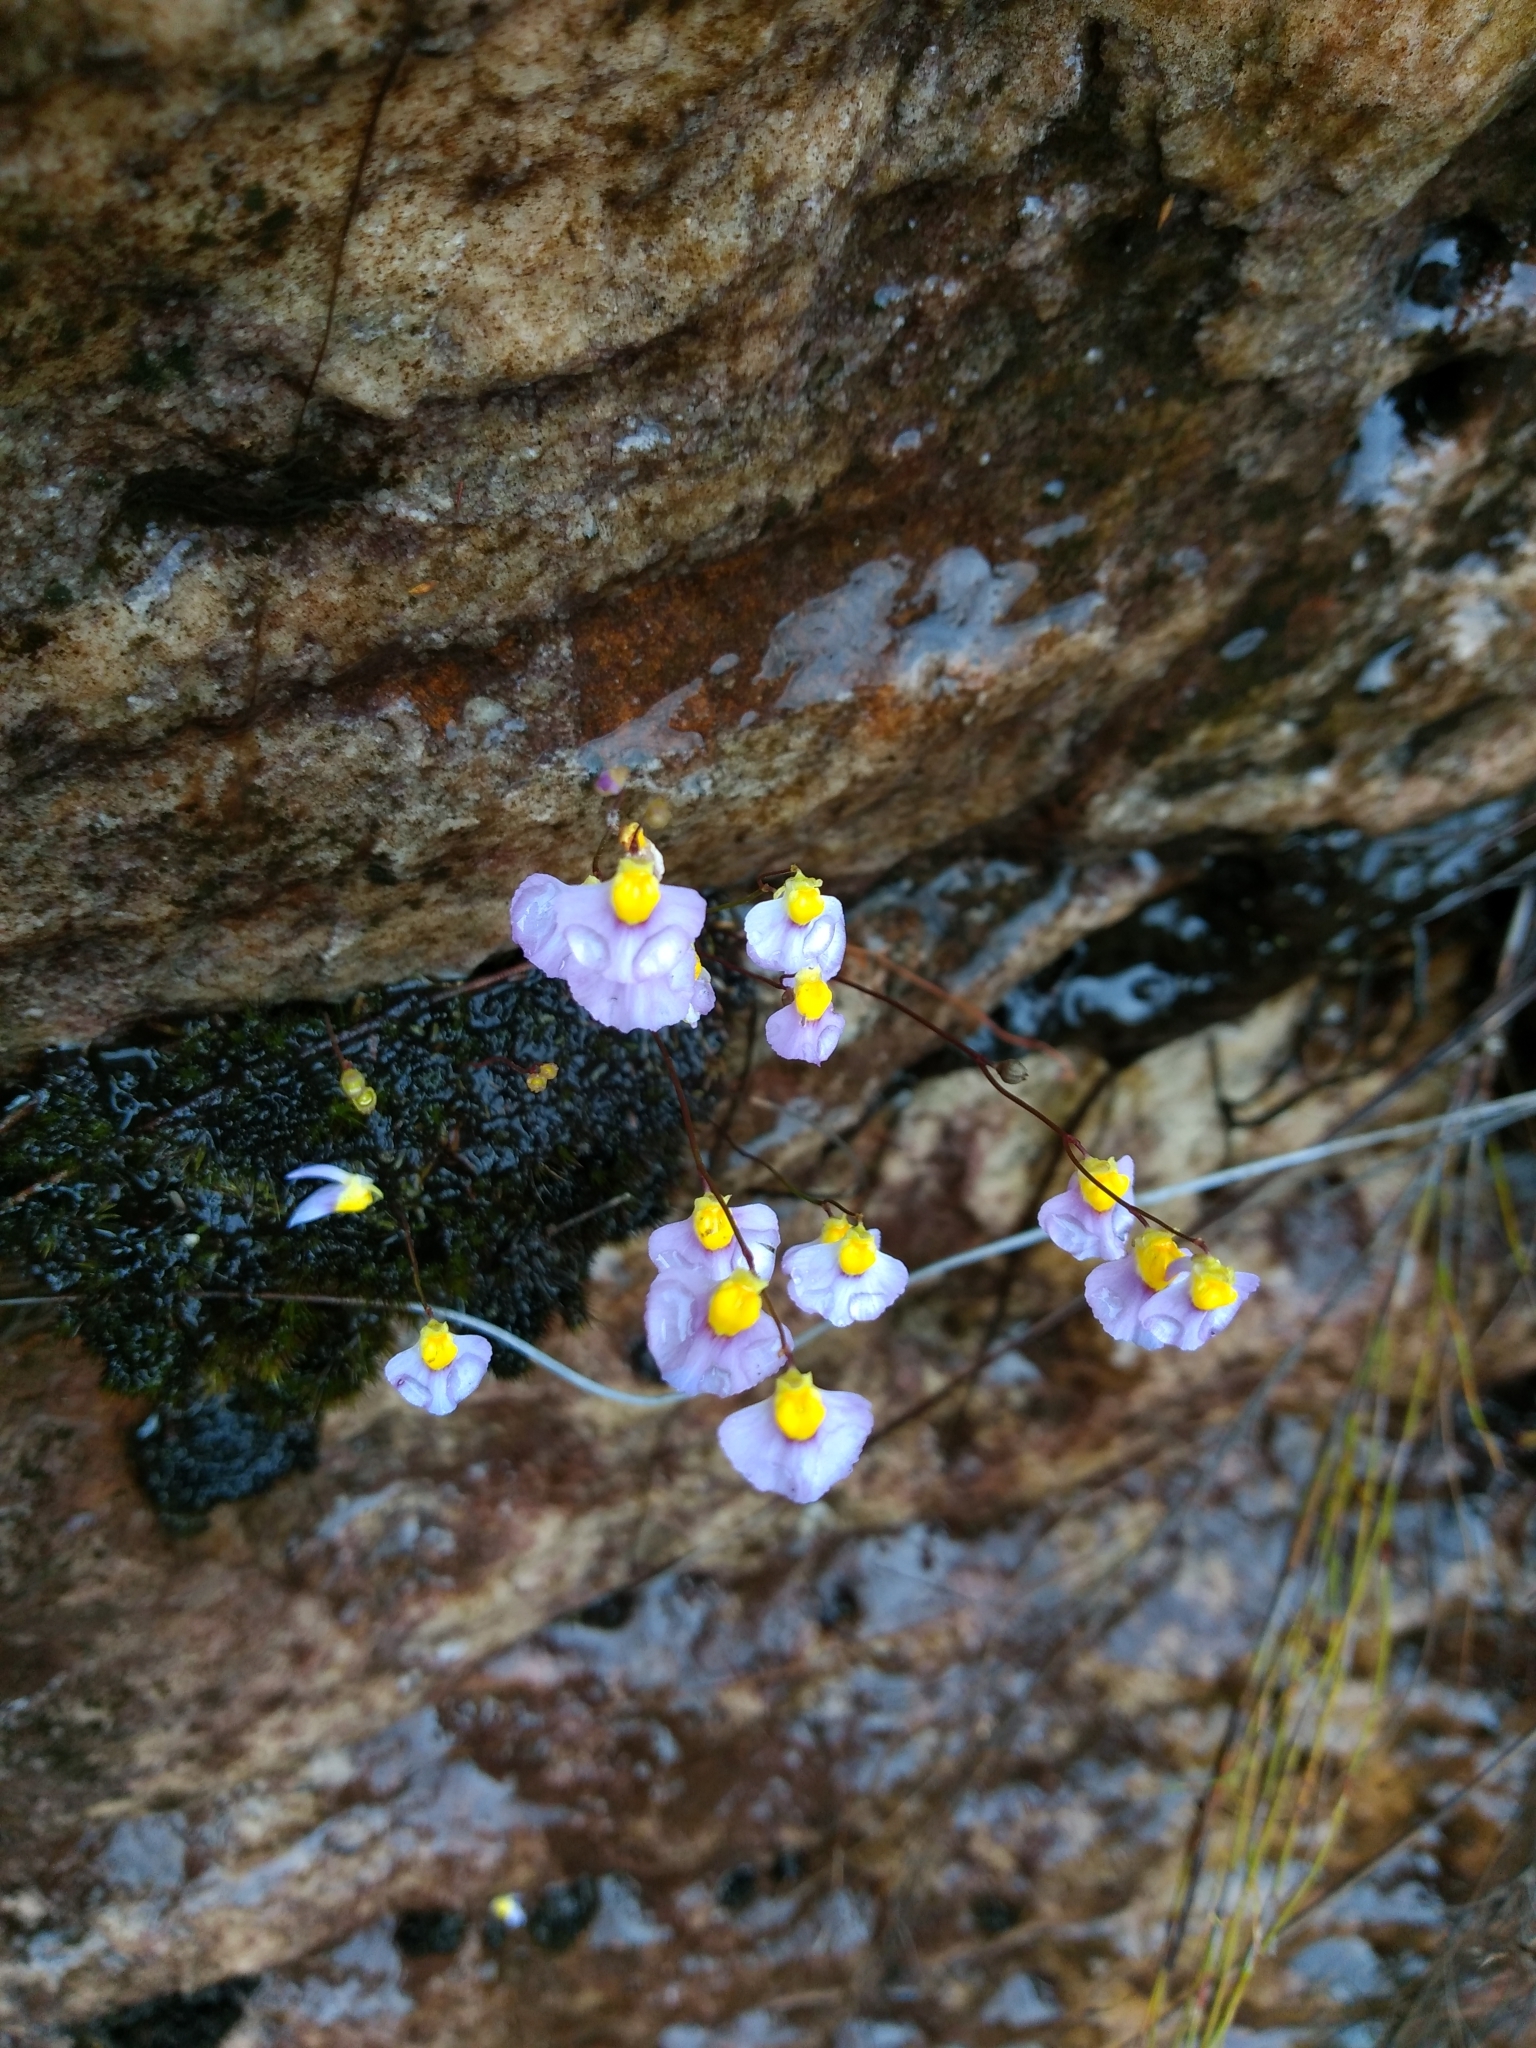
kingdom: Plantae
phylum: Tracheophyta
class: Magnoliopsida
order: Lamiales
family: Lentibulariaceae
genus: Utricularia
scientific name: Utricularia bisquamata
